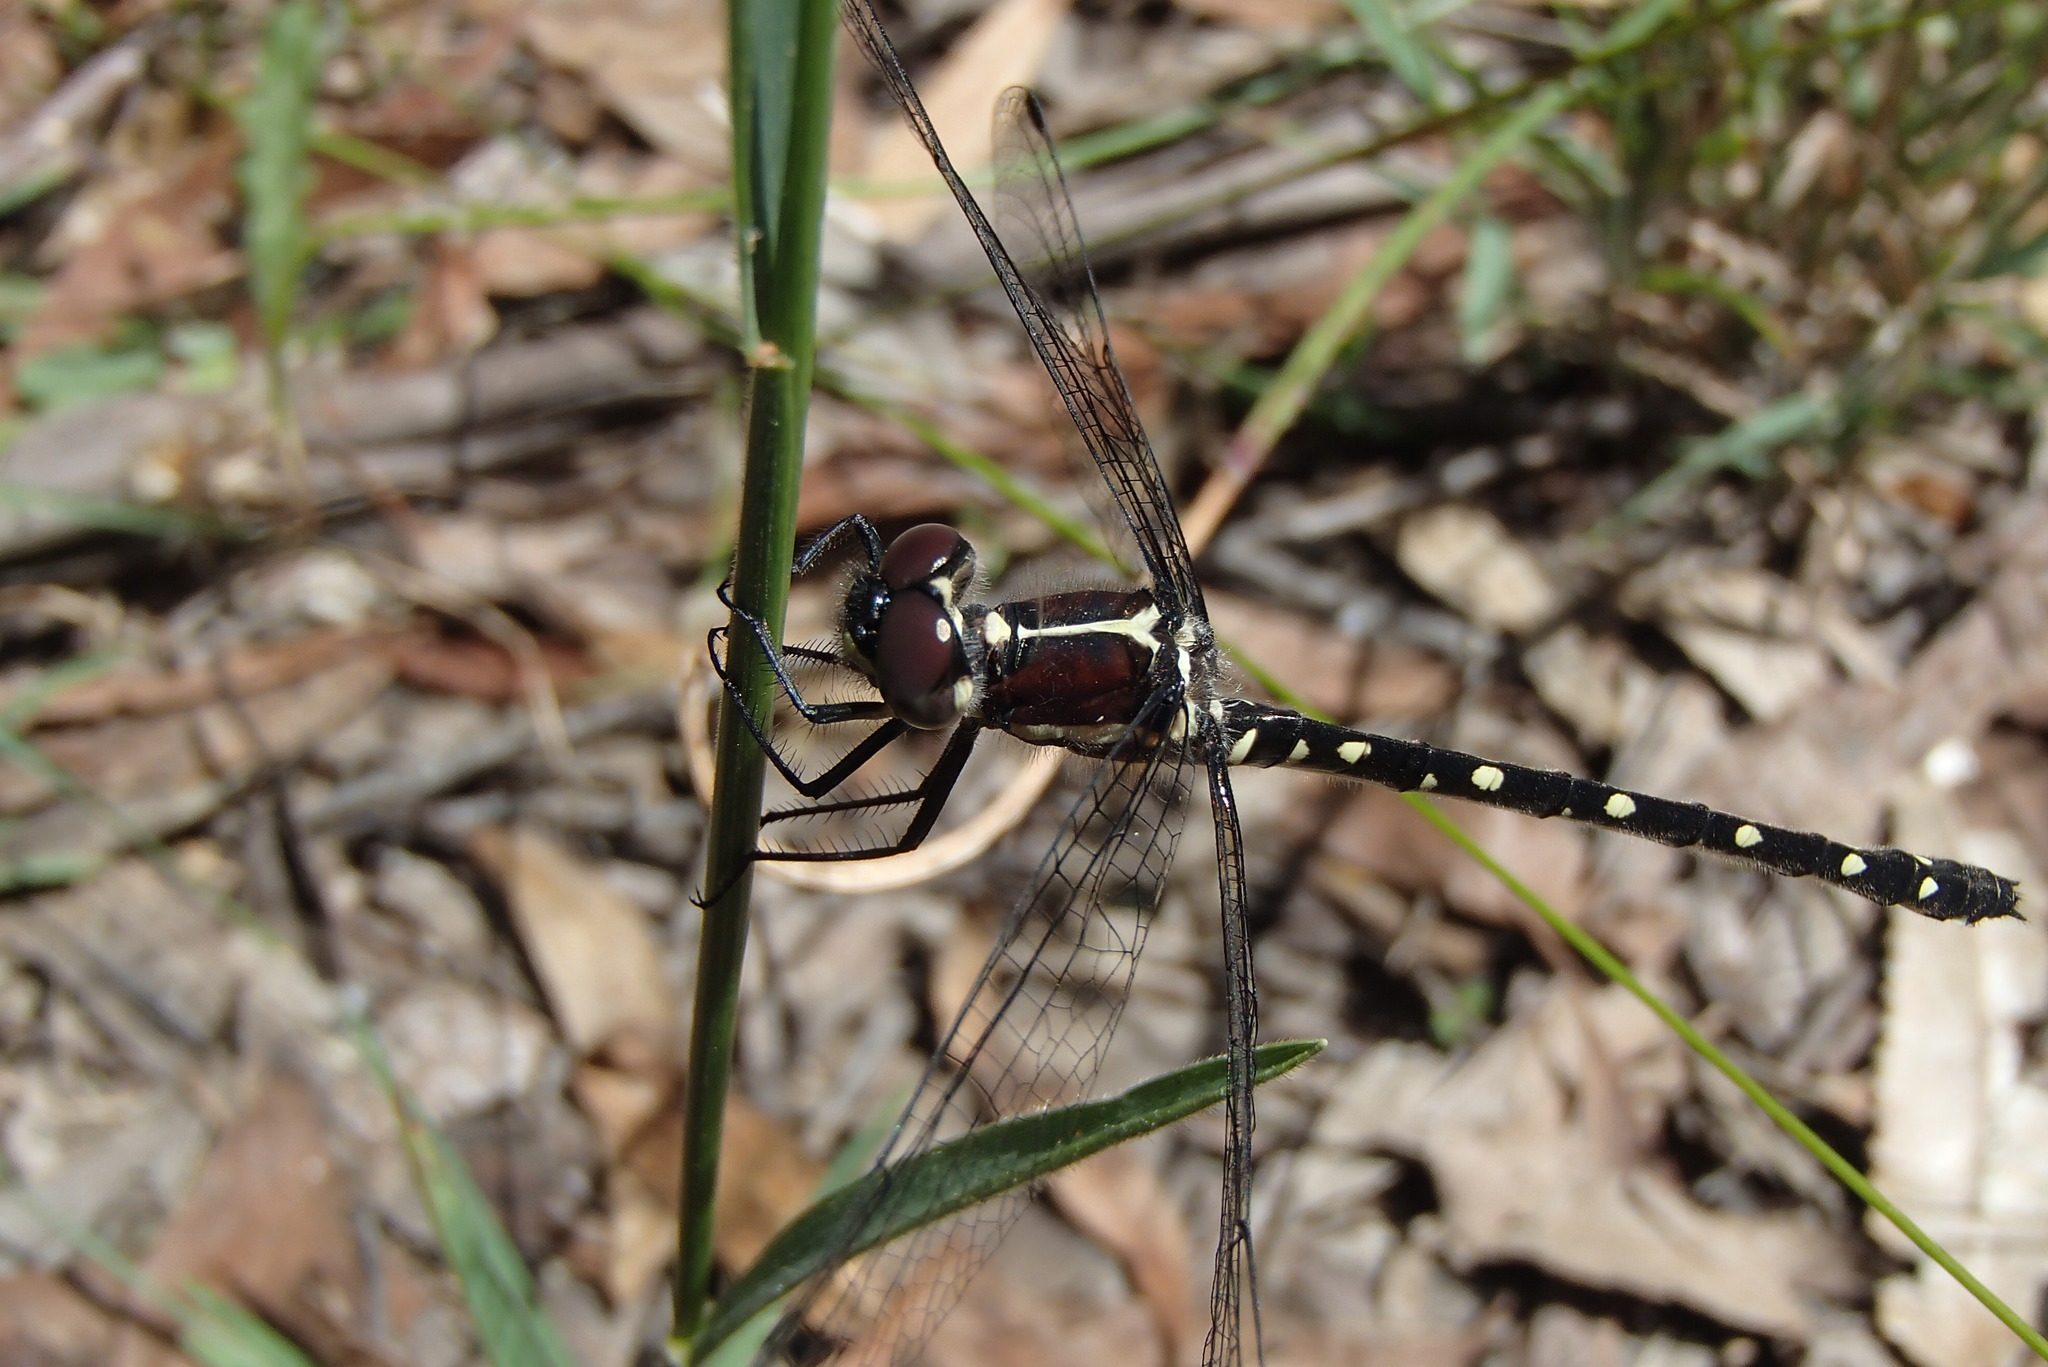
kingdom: Animalia
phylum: Arthropoda
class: Insecta
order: Odonata
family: Synthemistidae
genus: Eusynthemis
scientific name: Eusynthemis tillyardi
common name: Mountain tigertail
